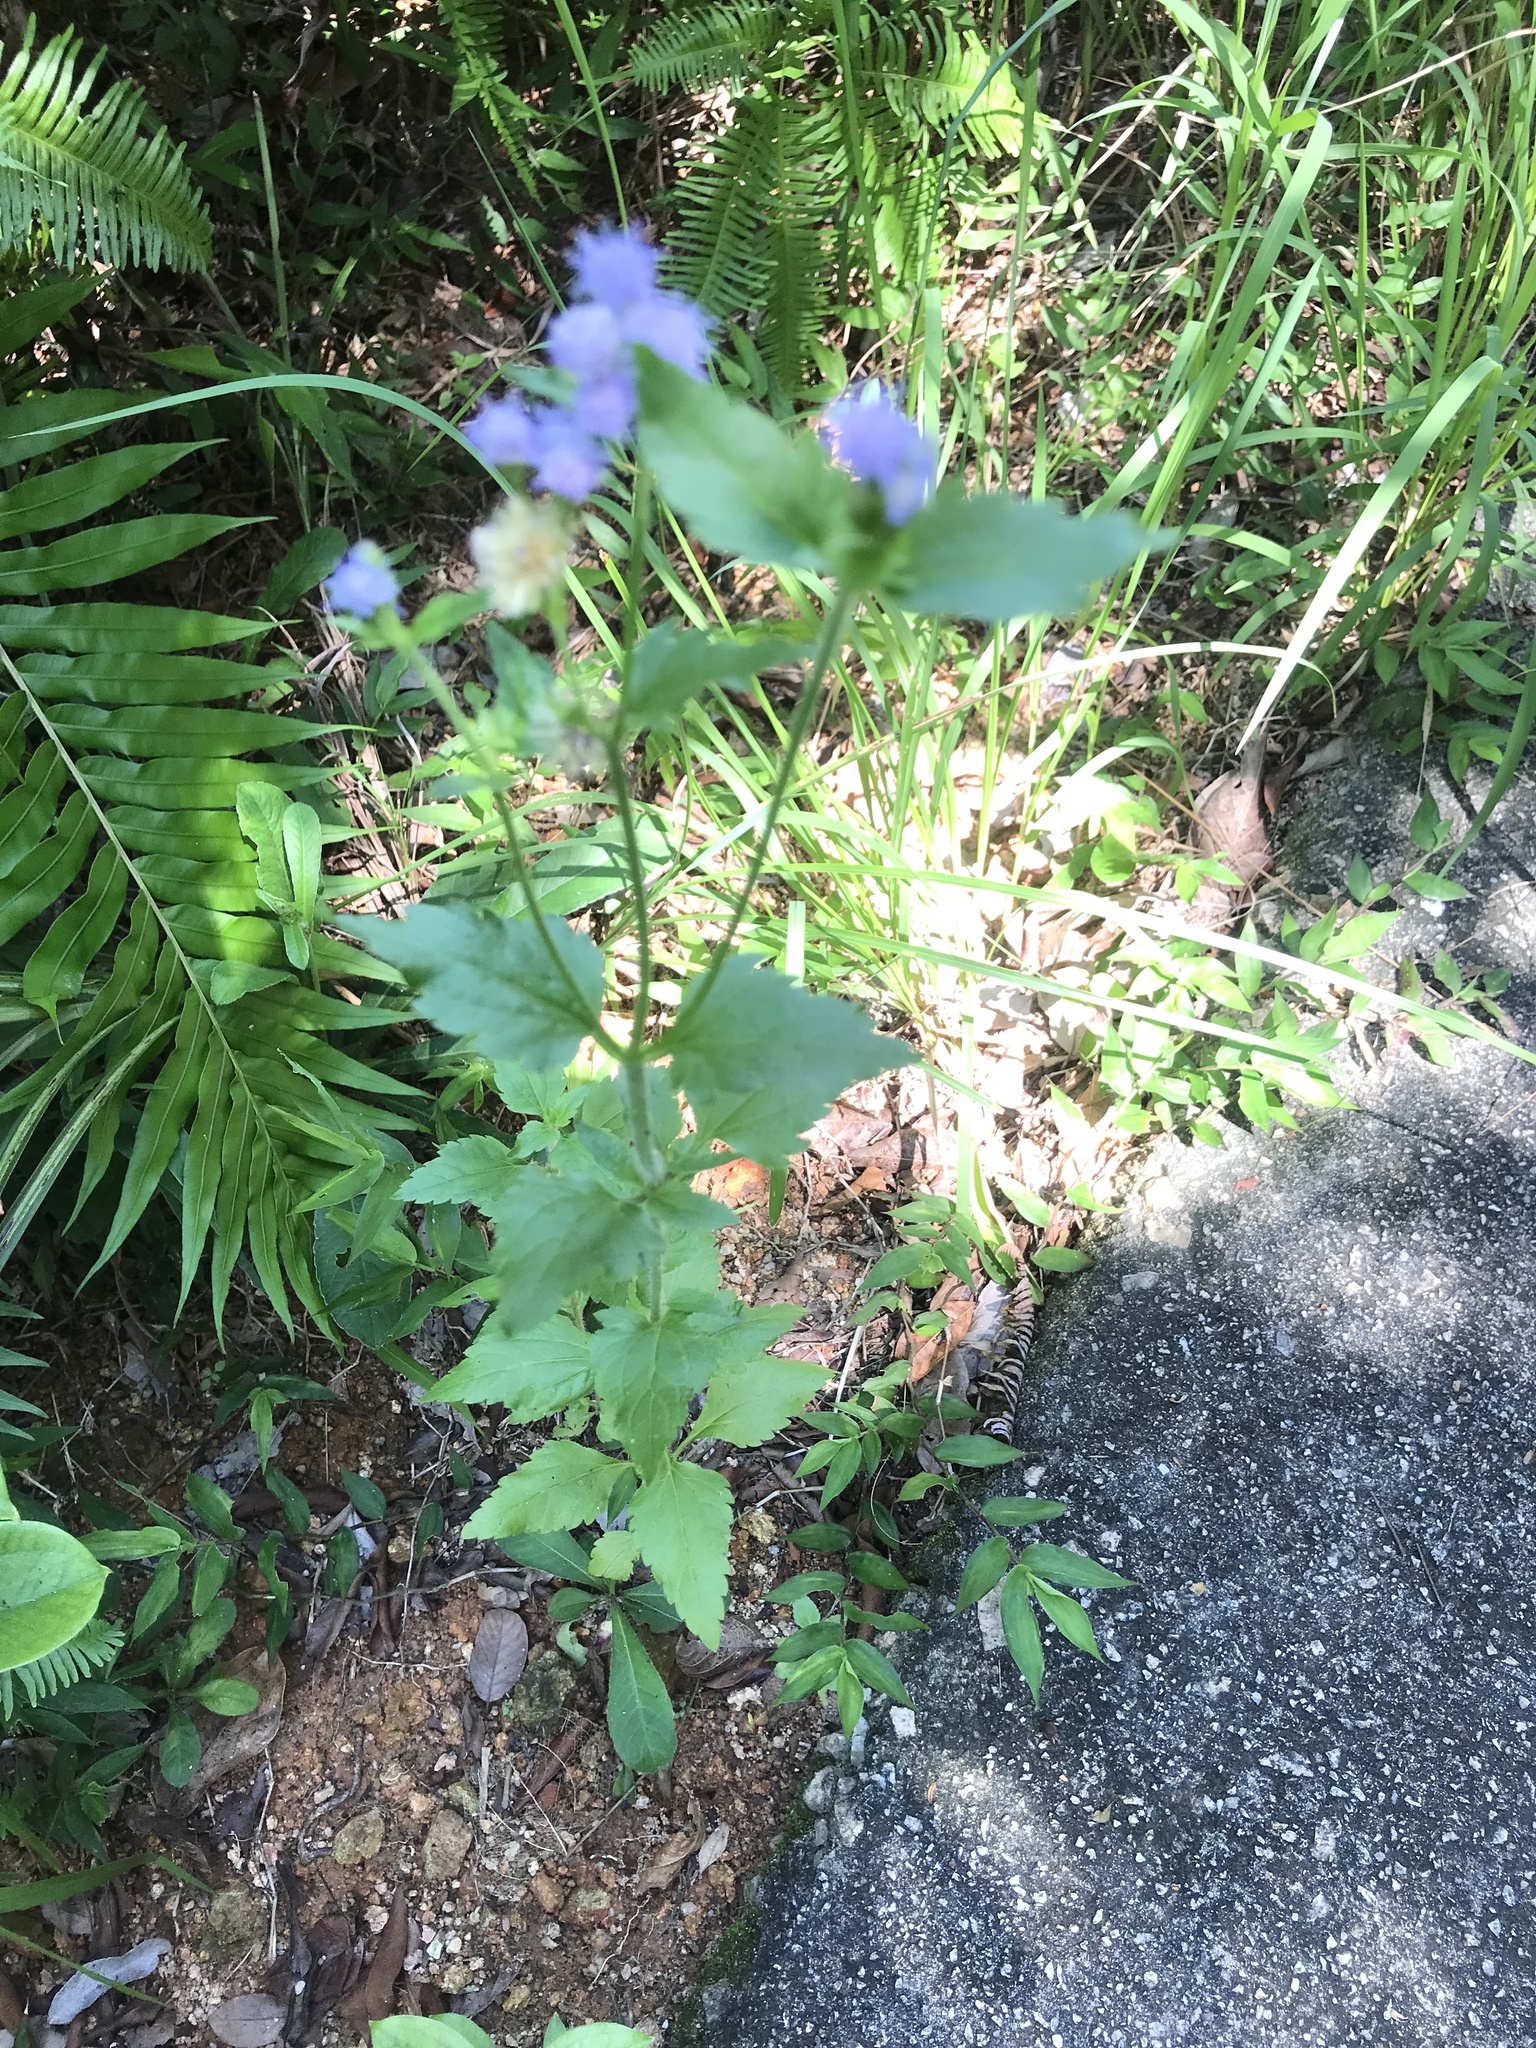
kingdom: Plantae
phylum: Tracheophyta
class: Magnoliopsida
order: Asterales
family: Asteraceae
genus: Praxelis
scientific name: Praxelis clematidea
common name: Praxelis
